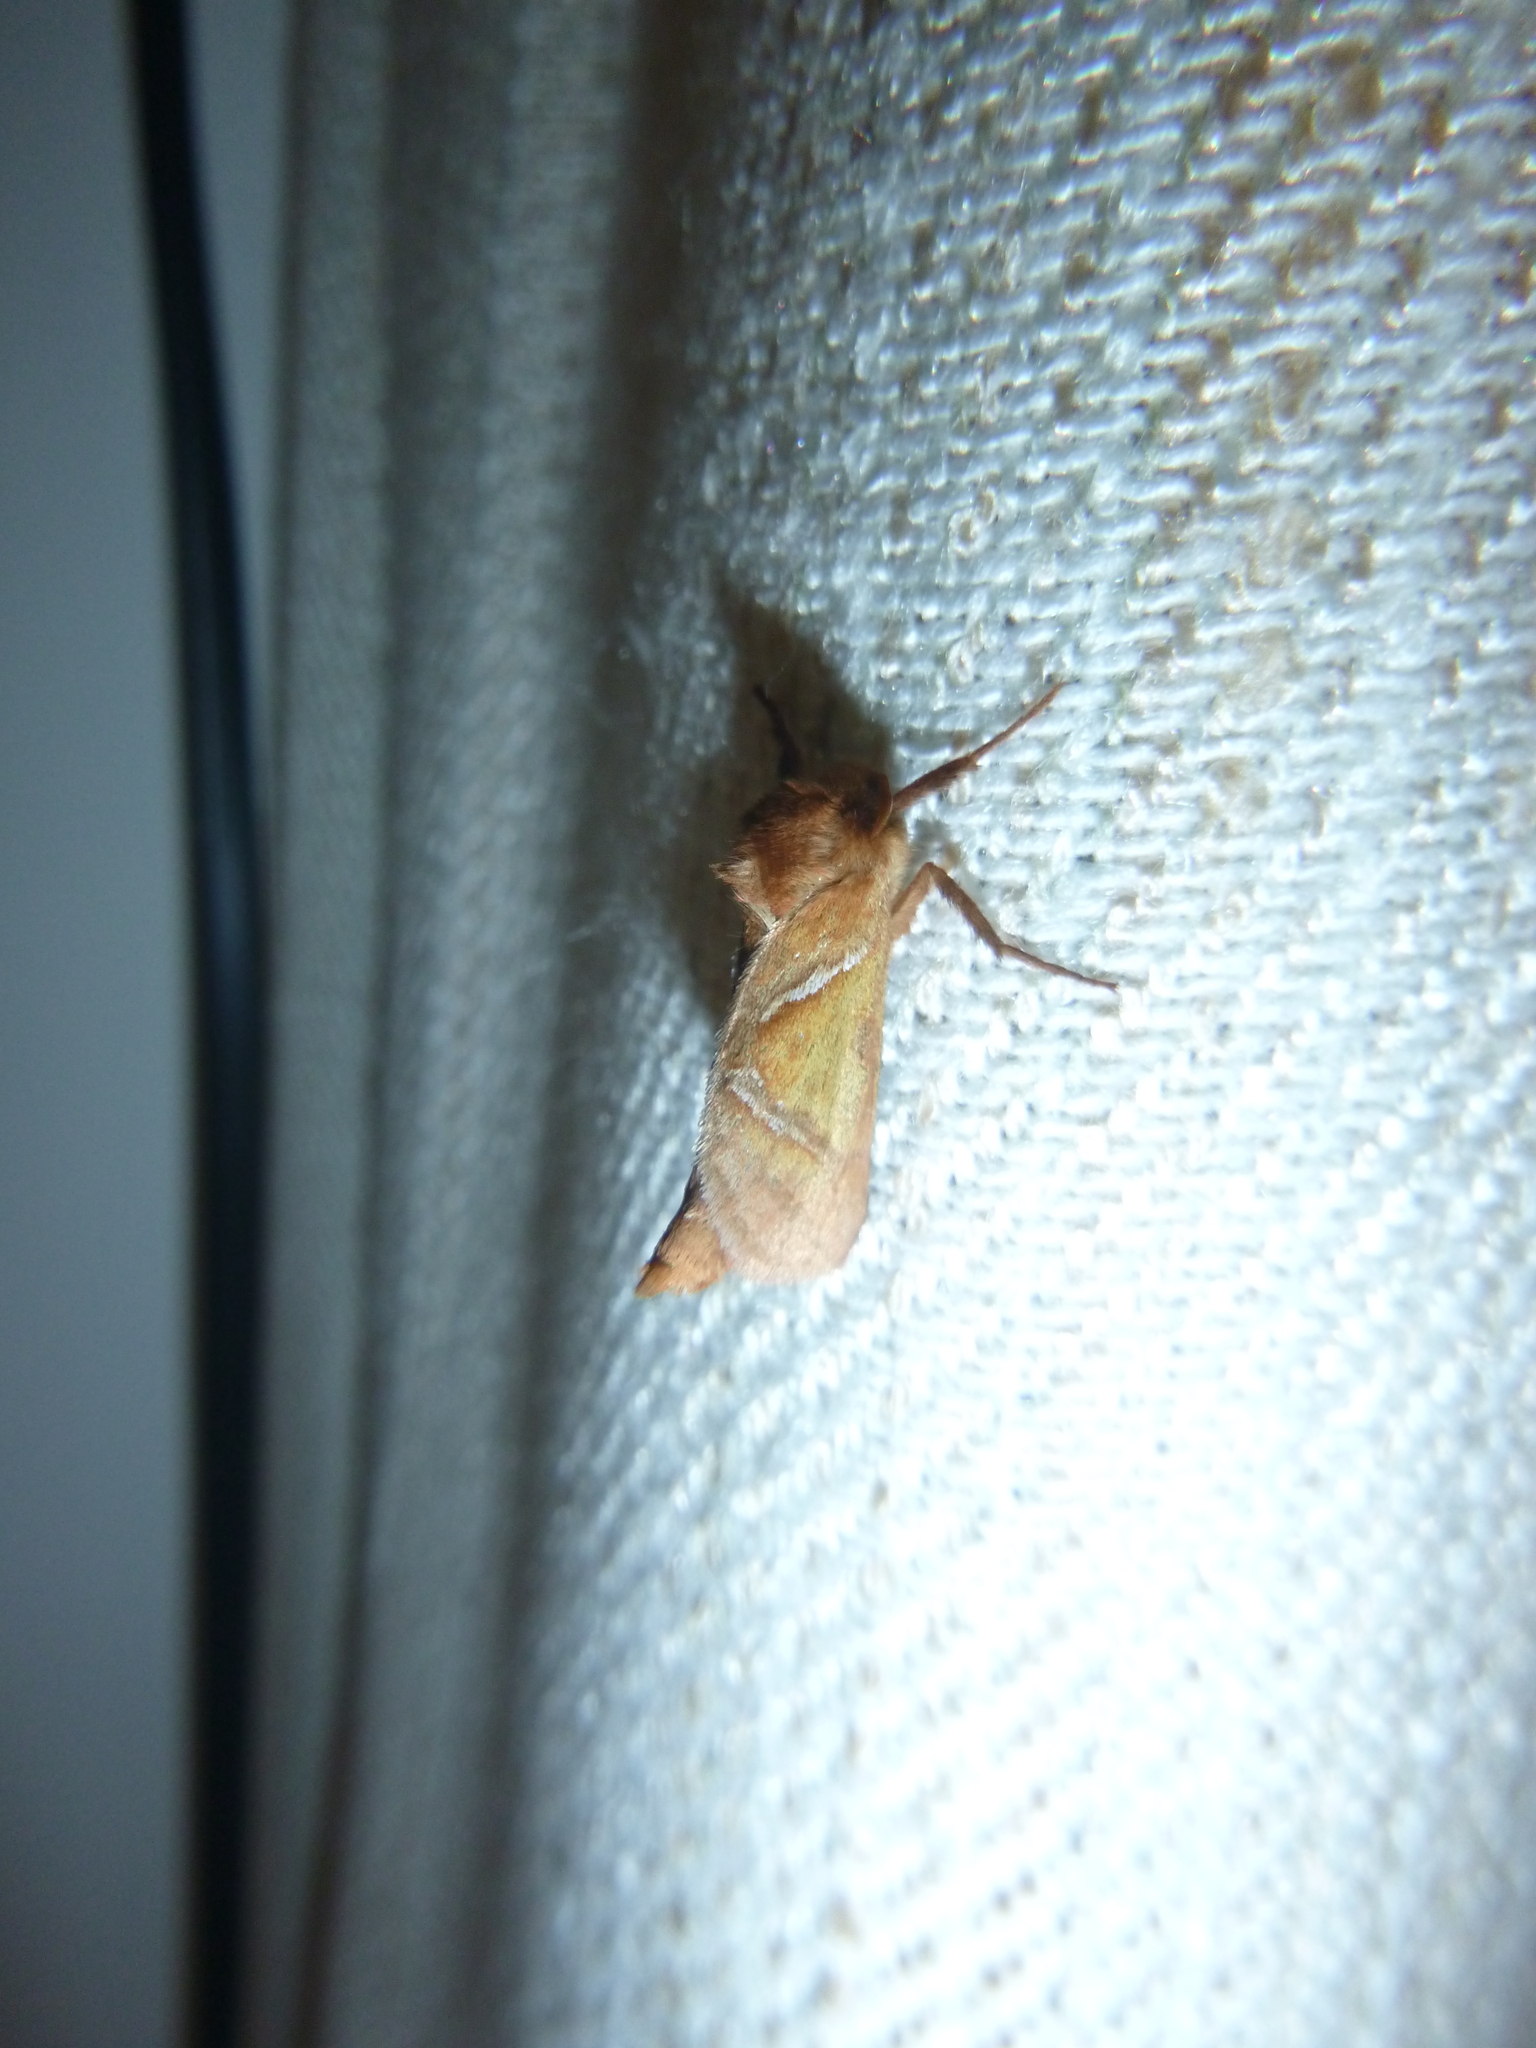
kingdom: Animalia
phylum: Arthropoda
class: Insecta
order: Lepidoptera
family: Hepialidae
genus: Triodia
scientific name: Triodia sylvina
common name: Orange swift
